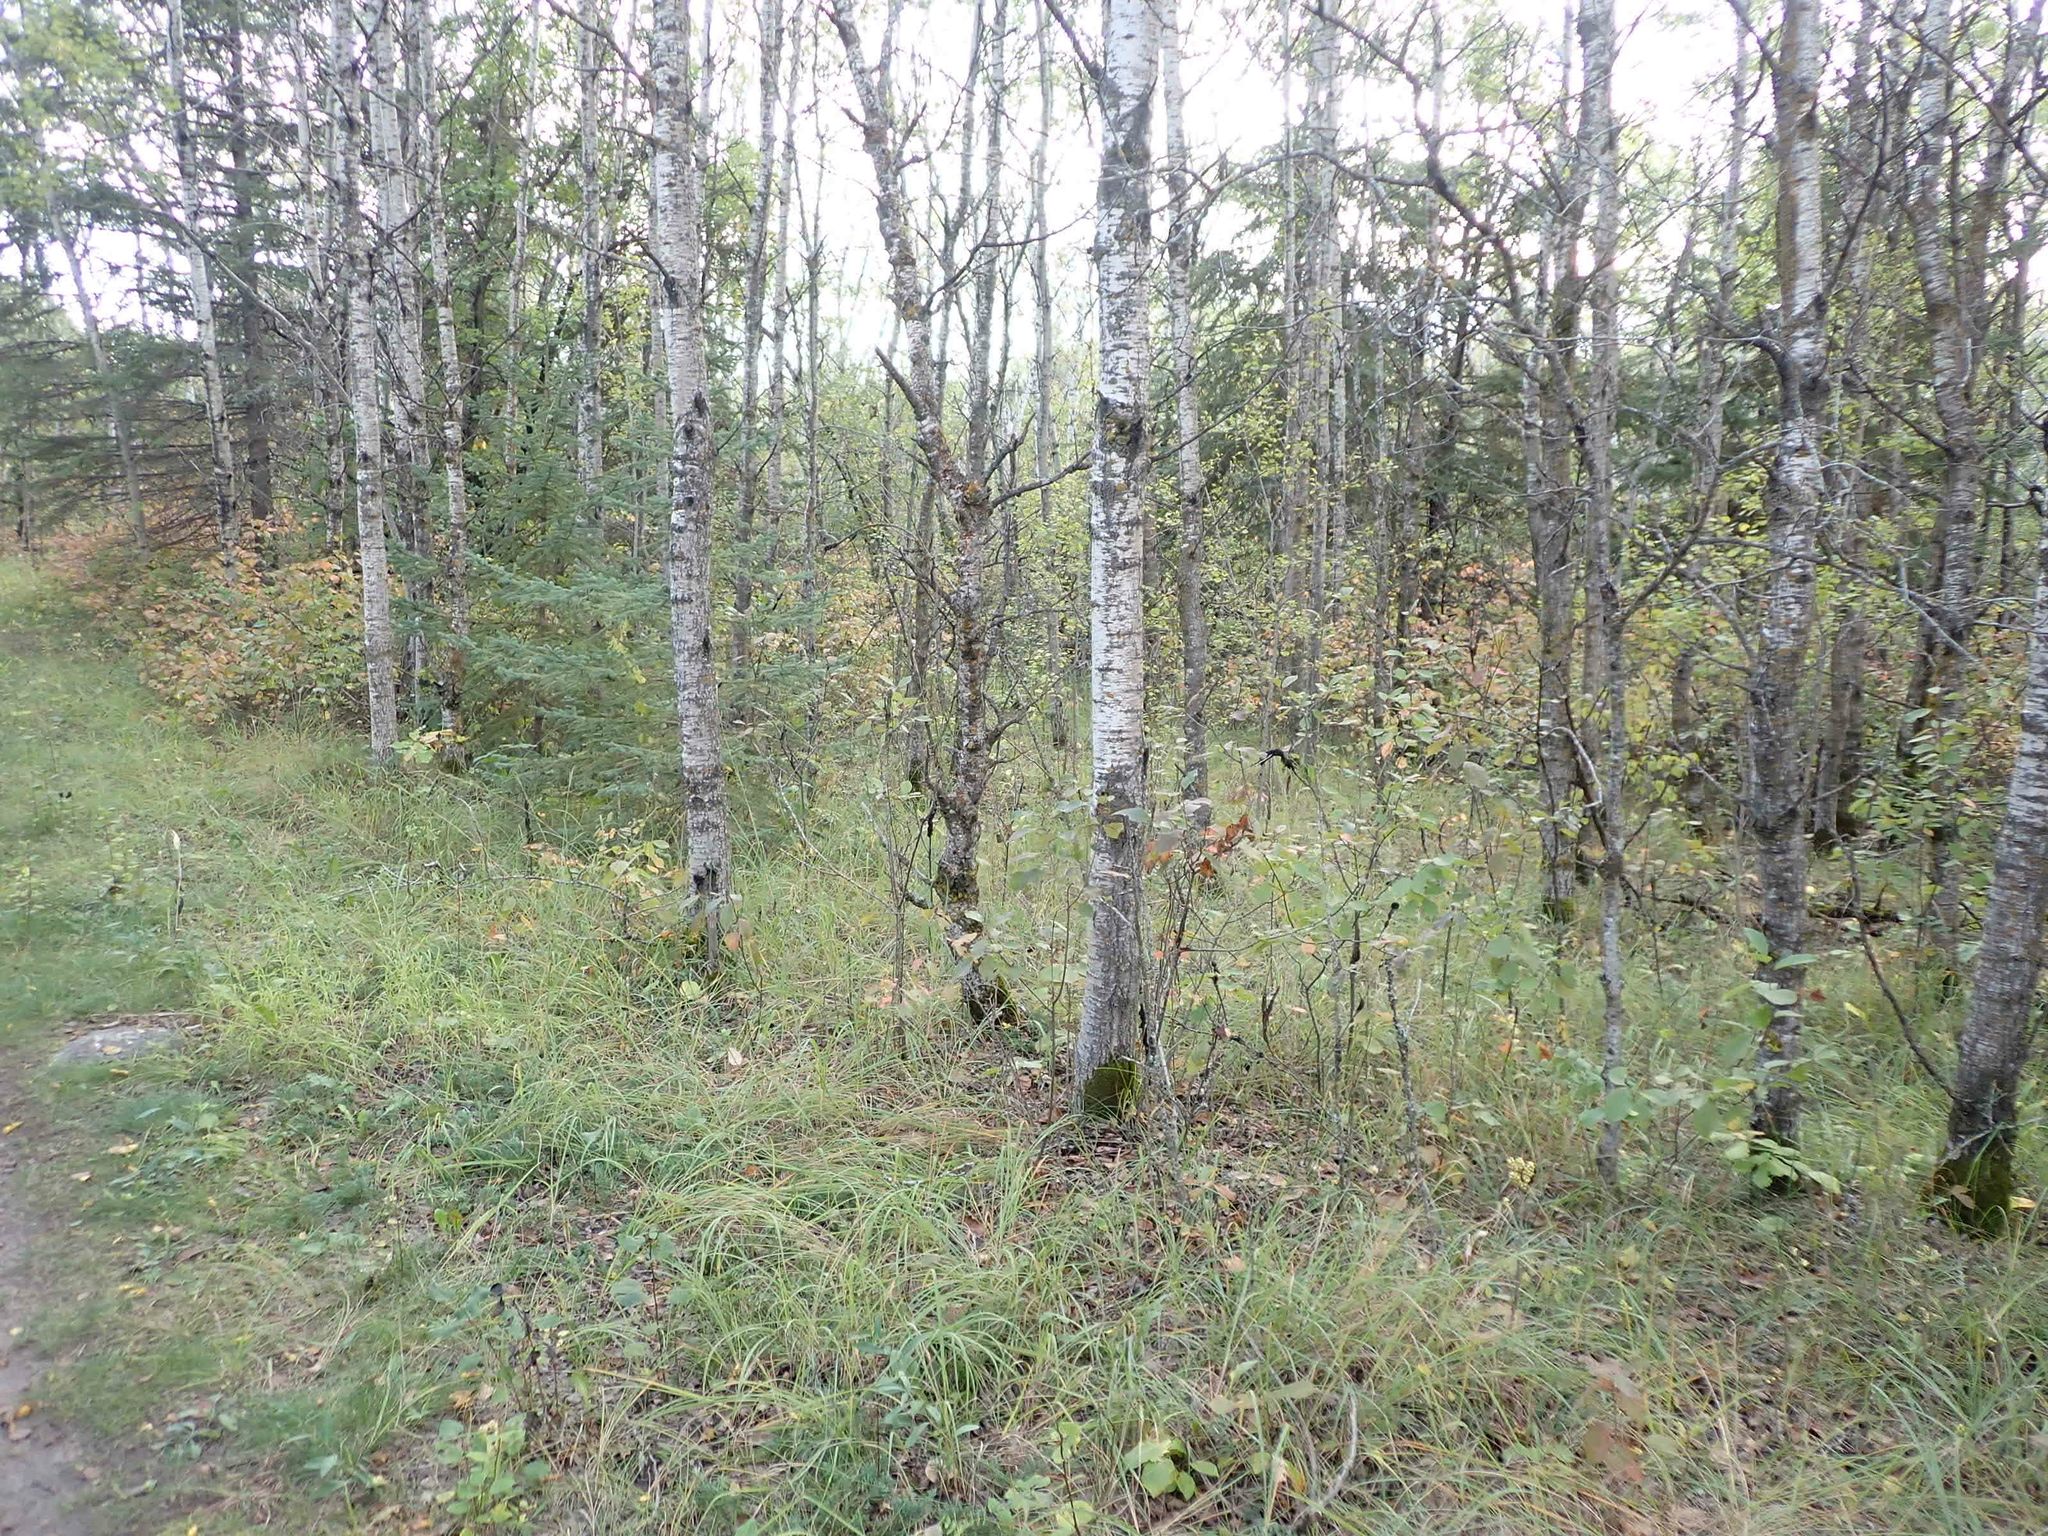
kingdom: Plantae
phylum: Tracheophyta
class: Magnoliopsida
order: Malpighiales
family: Salicaceae
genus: Populus
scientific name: Populus tremuloides
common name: Quaking aspen
